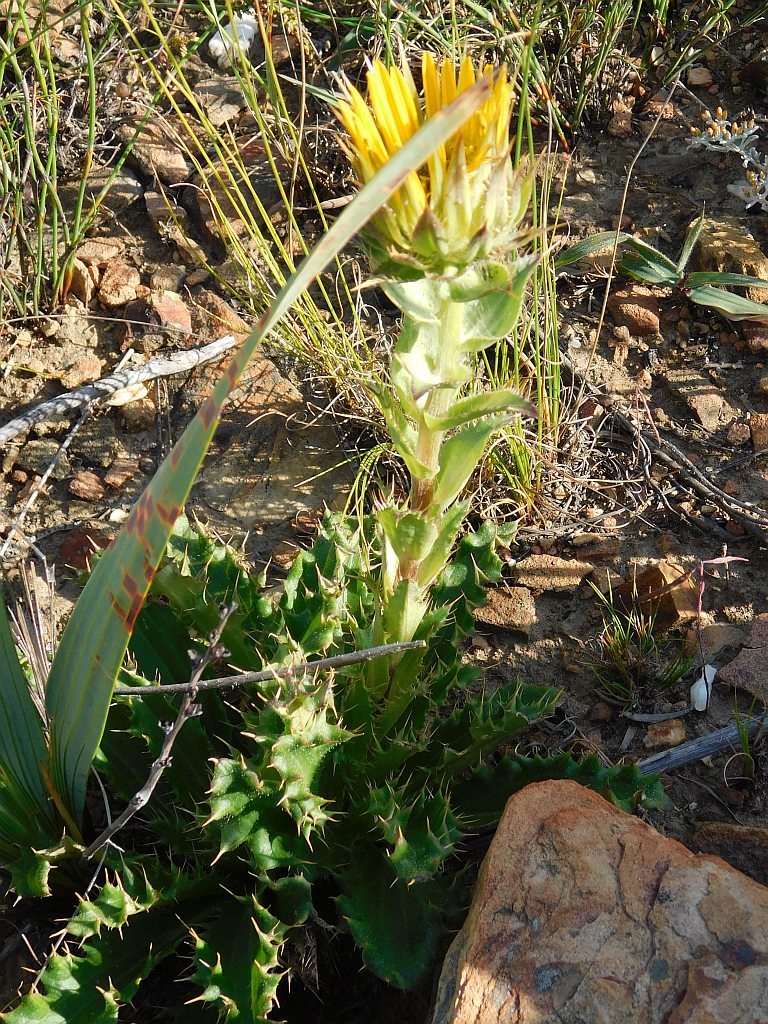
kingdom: Plantae
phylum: Tracheophyta
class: Magnoliopsida
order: Asterales
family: Asteraceae
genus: Berkheya
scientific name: Berkheya armata
